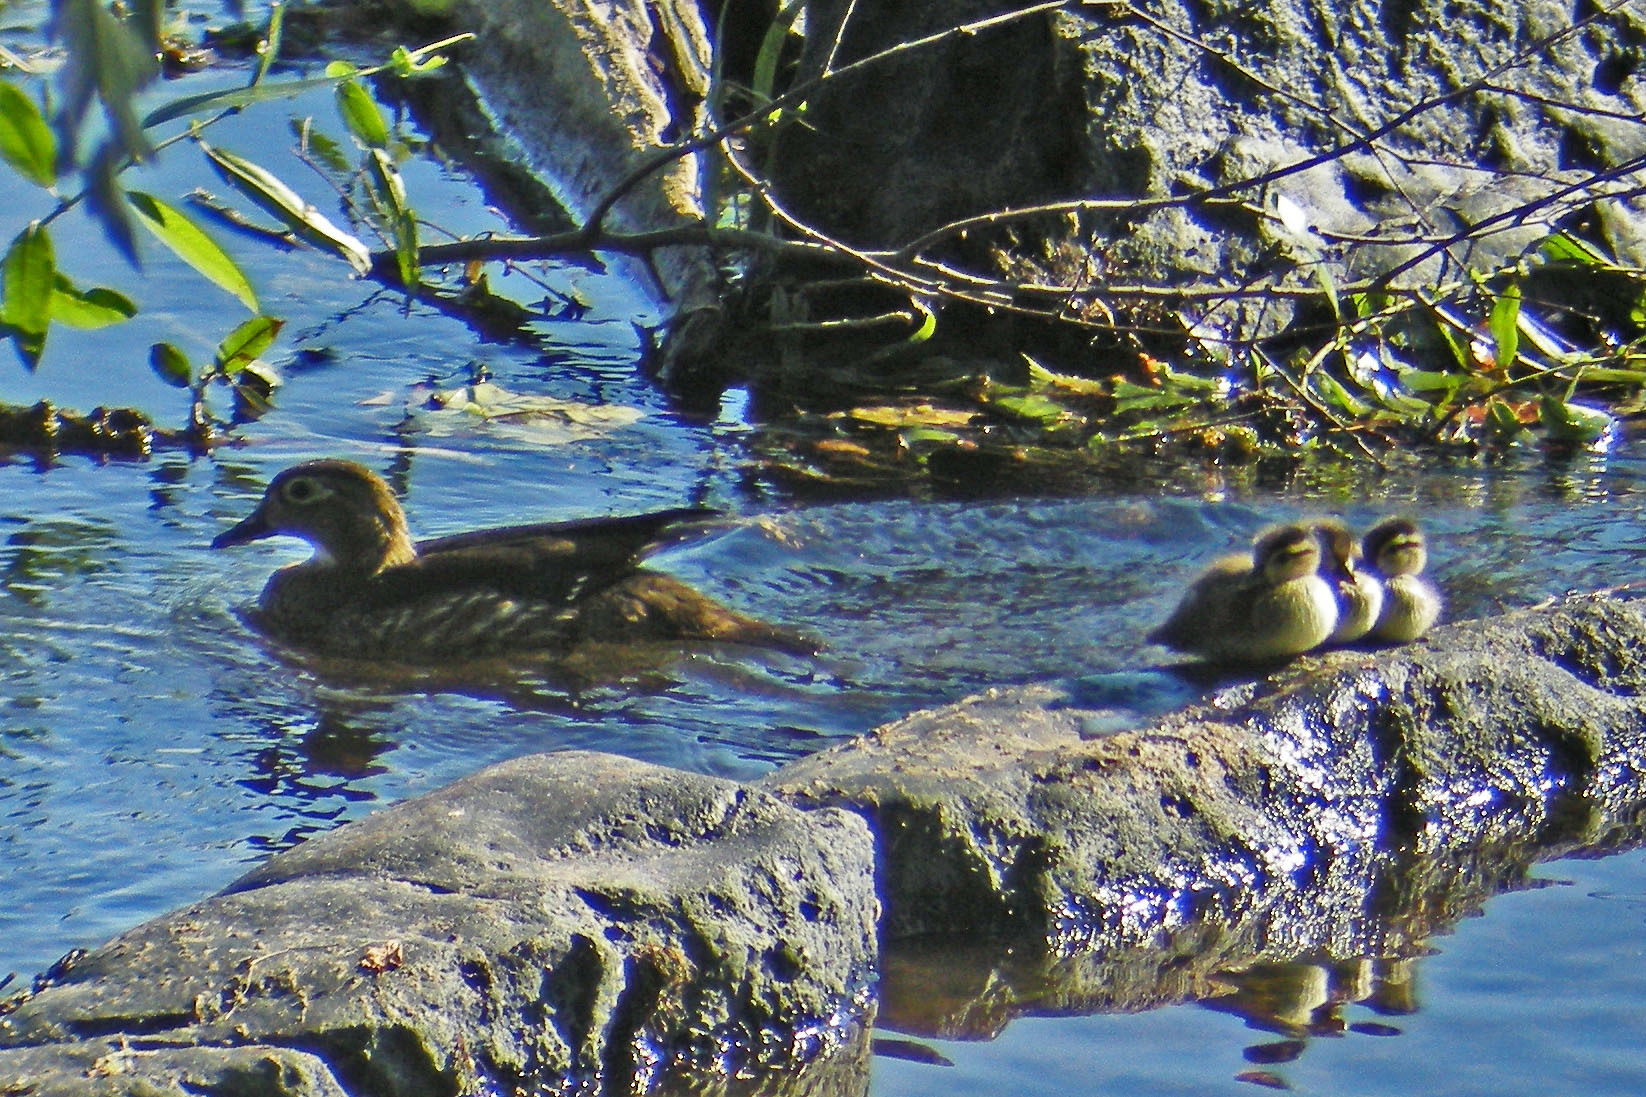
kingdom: Animalia
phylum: Chordata
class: Aves
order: Anseriformes
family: Anatidae
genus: Aix
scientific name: Aix sponsa
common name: Wood duck
